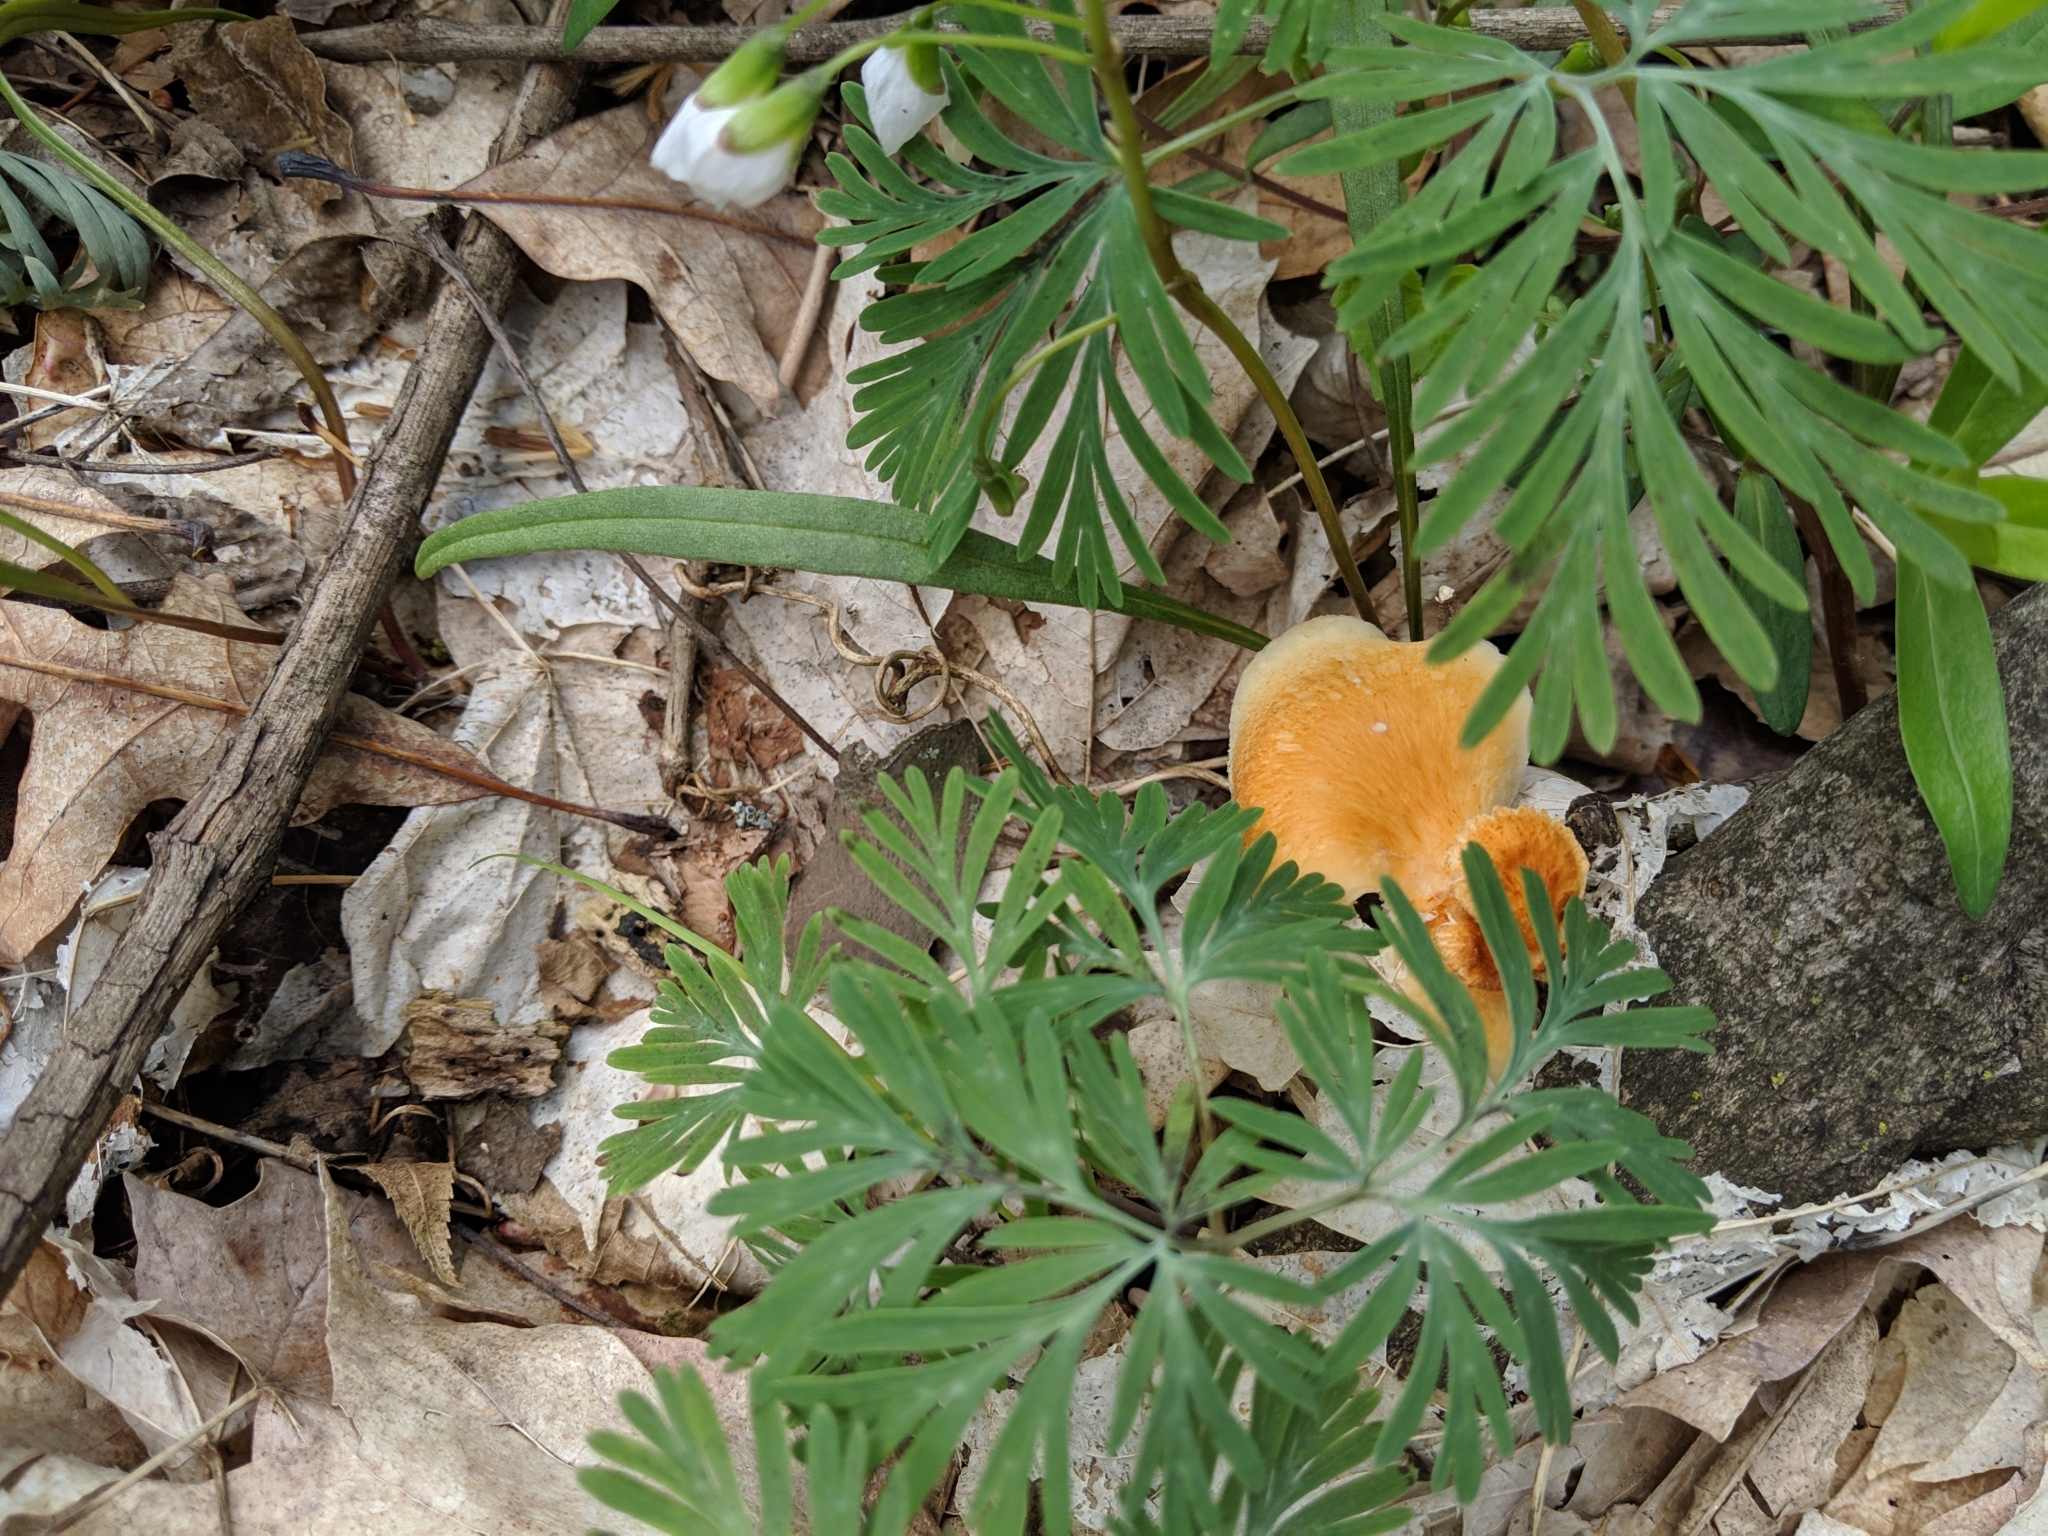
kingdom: Fungi
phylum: Basidiomycota
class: Agaricomycetes
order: Polyporales
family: Polyporaceae
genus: Neofavolus
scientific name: Neofavolus alveolaris
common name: Hexagonal-pored polypore
